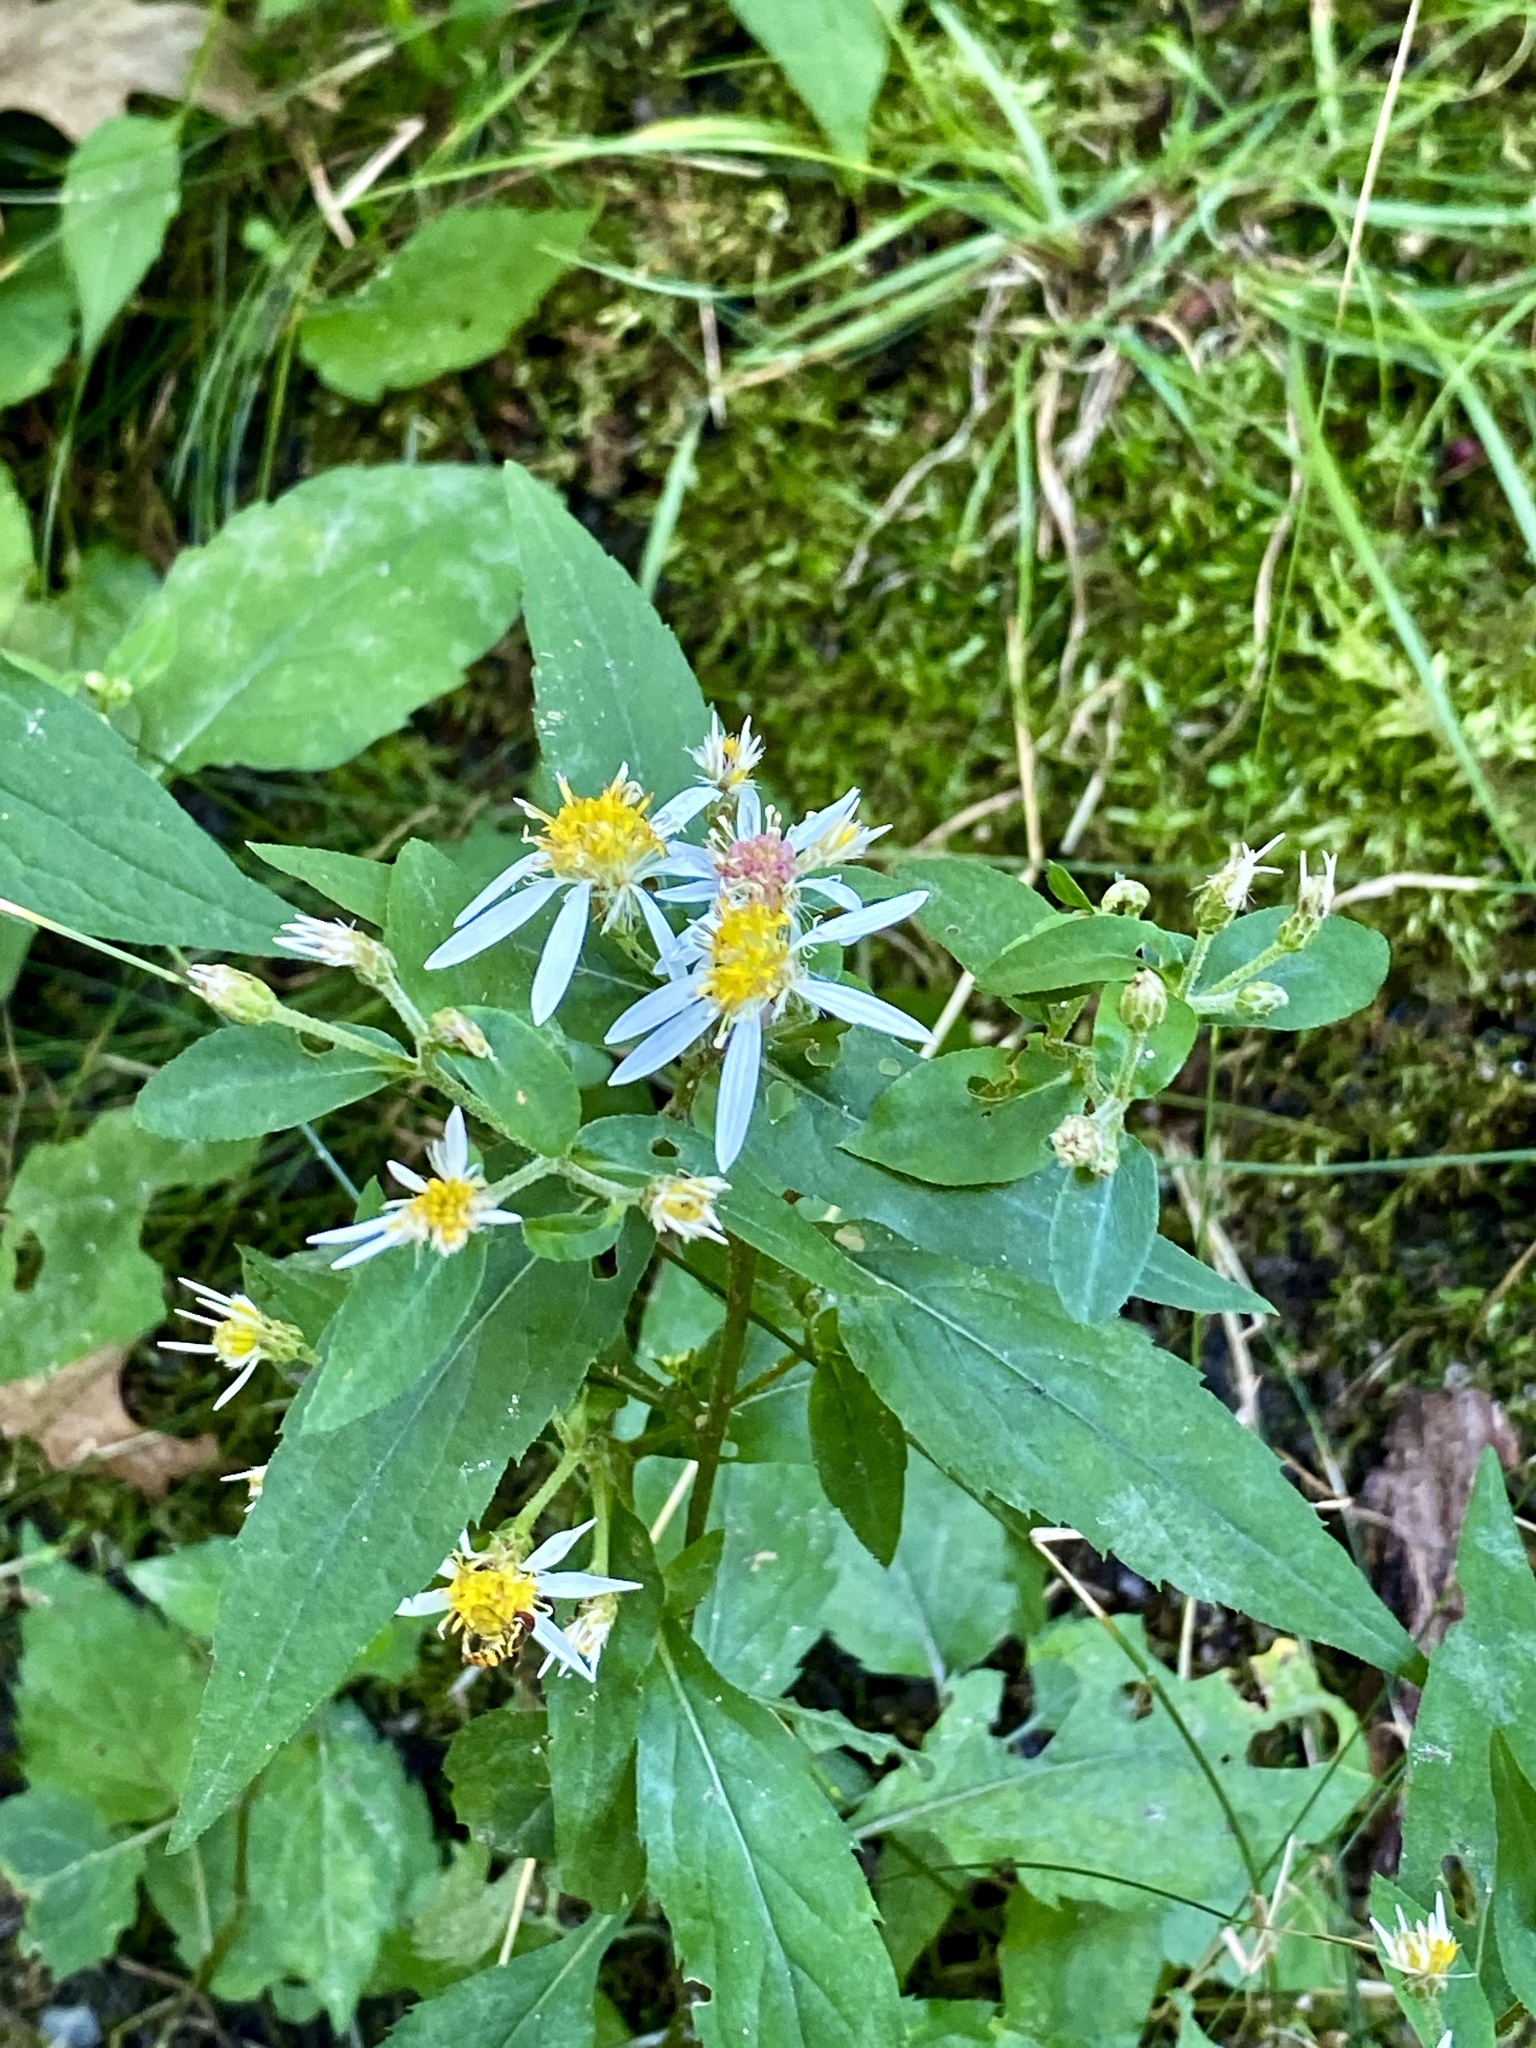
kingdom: Plantae
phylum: Tracheophyta
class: Magnoliopsida
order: Asterales
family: Asteraceae
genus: Eurybia
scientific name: Eurybia divaricata
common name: White wood aster
